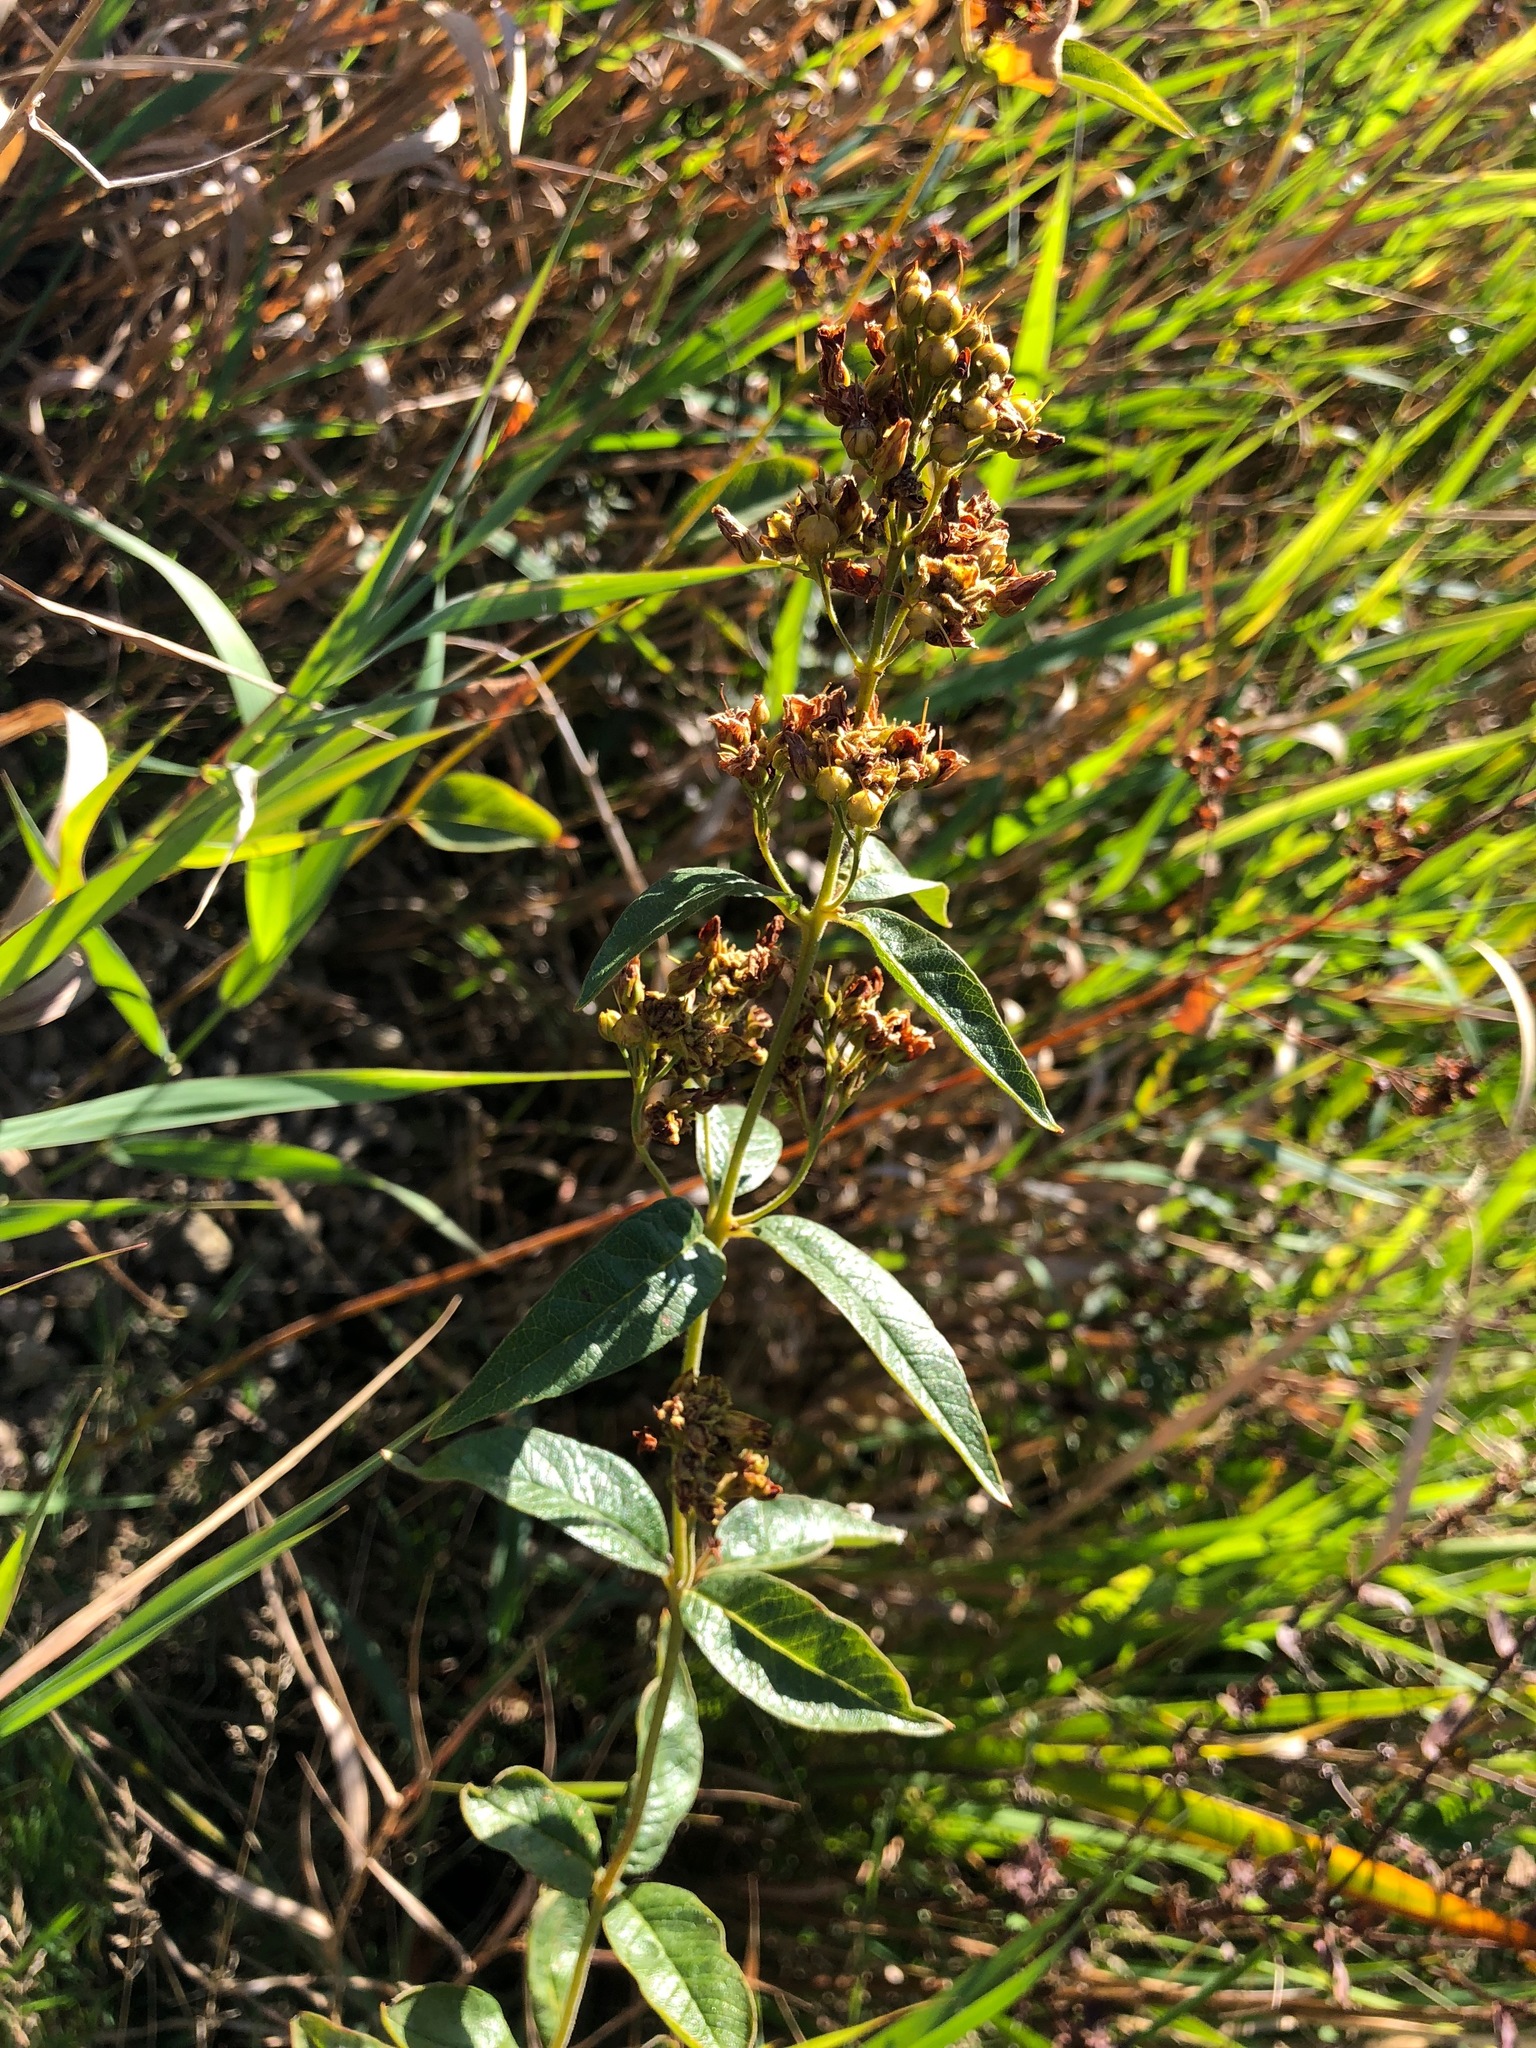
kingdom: Plantae
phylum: Tracheophyta
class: Magnoliopsida
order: Ericales
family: Primulaceae
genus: Lysimachia
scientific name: Lysimachia vulgaris
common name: Yellow loosestrife
